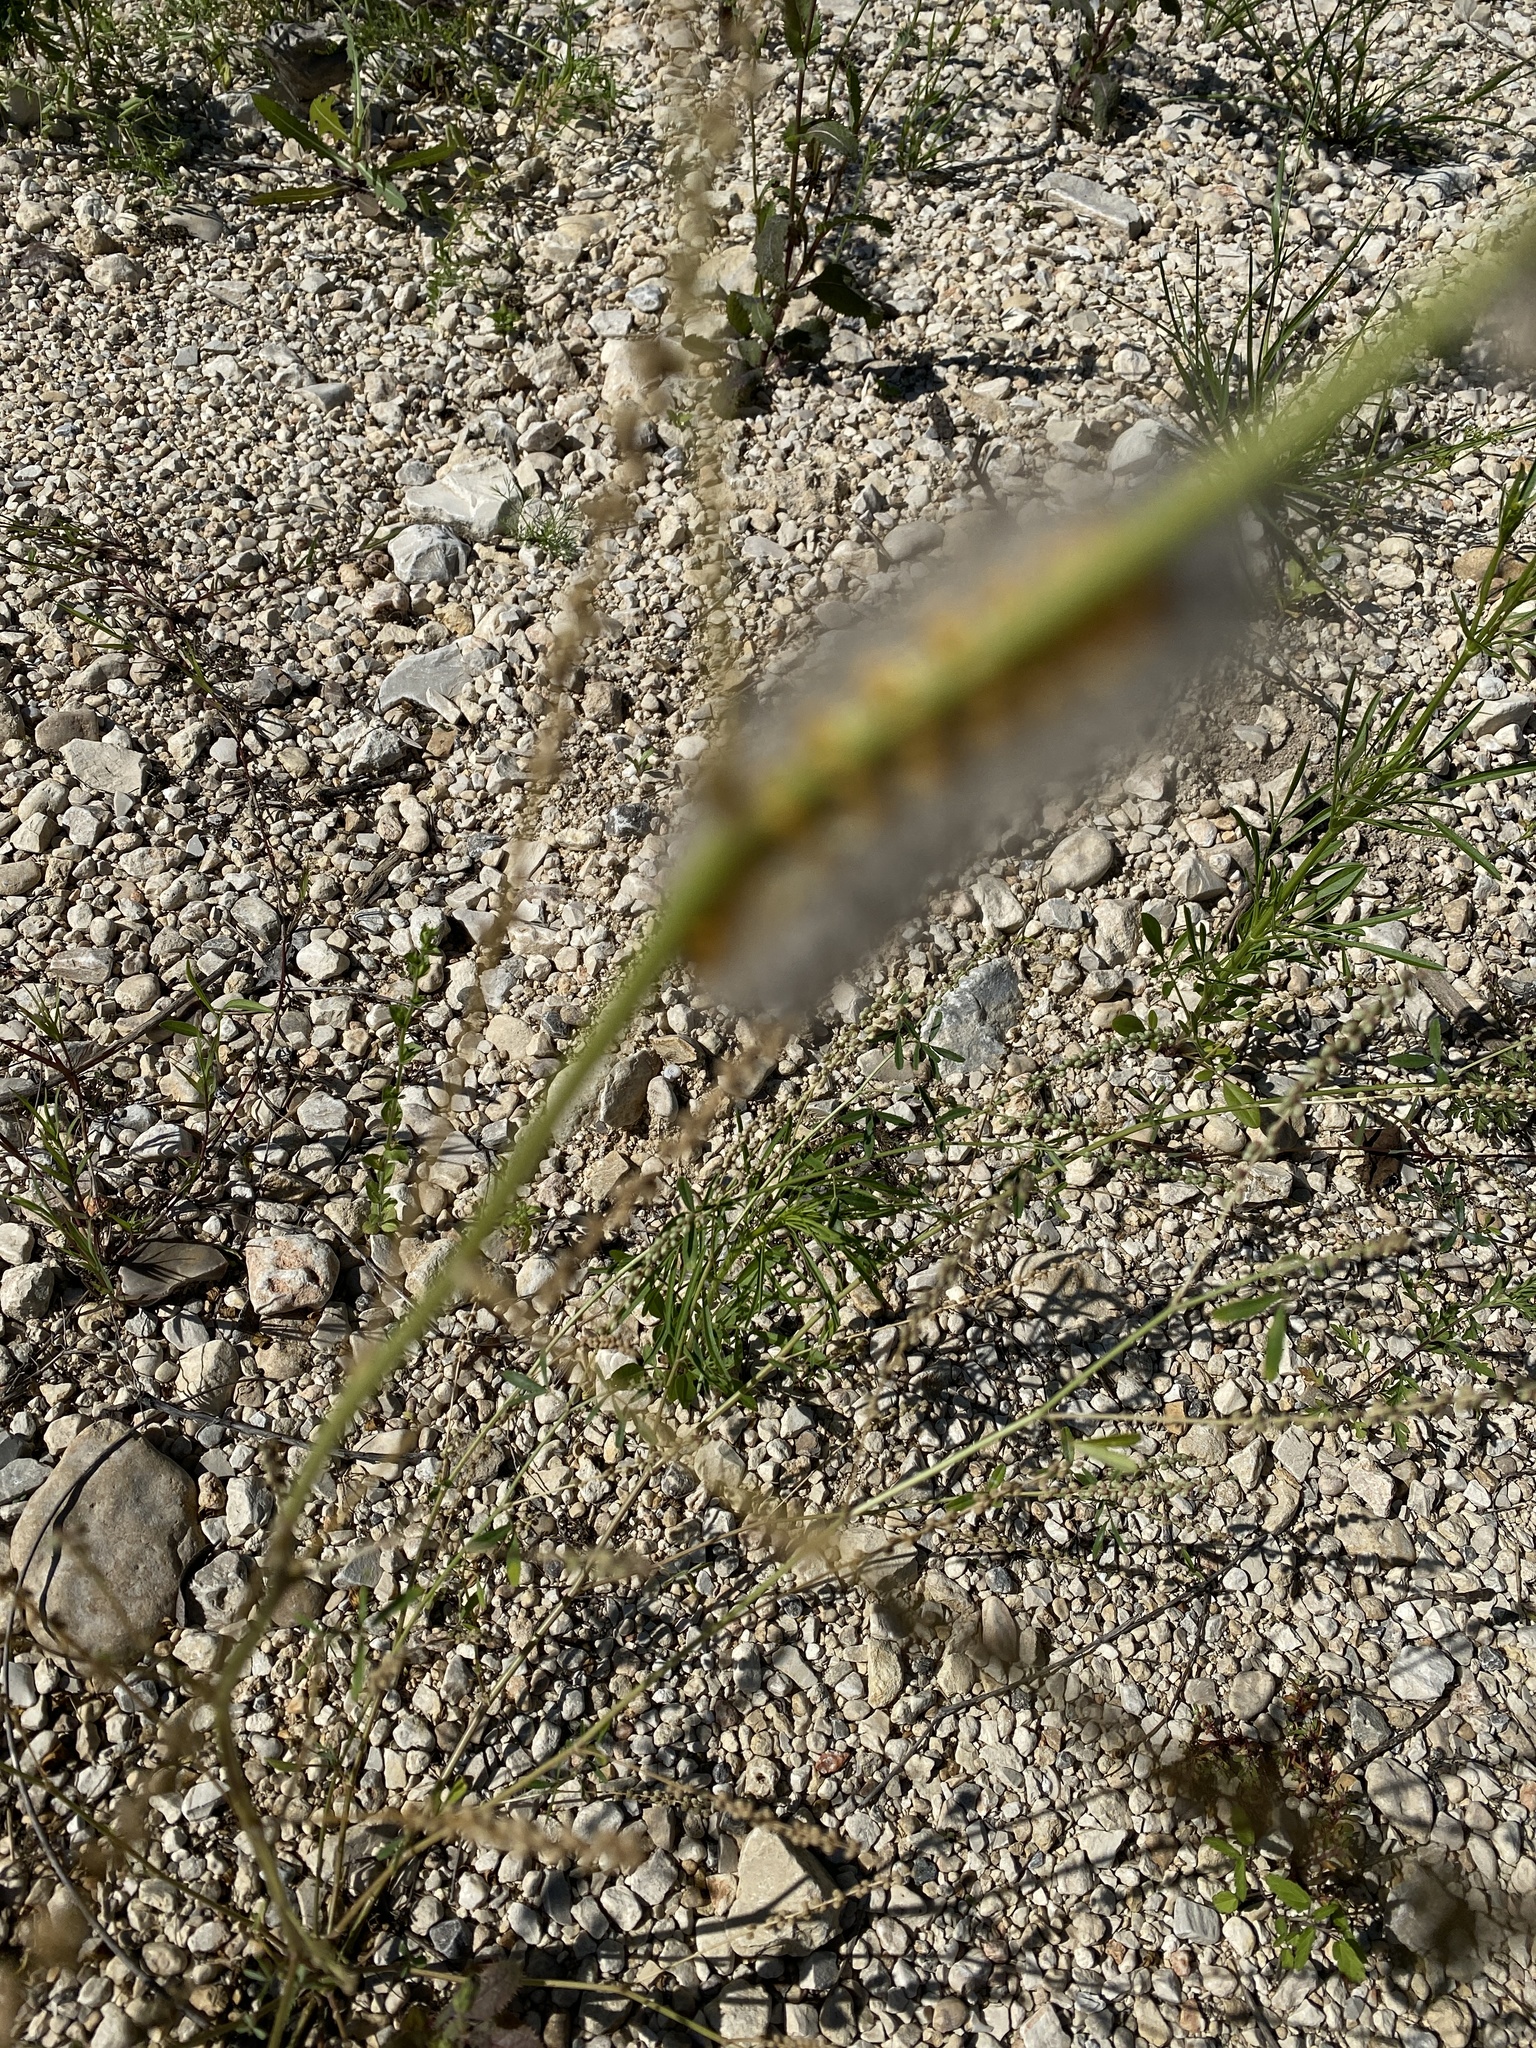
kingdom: Animalia
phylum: Arthropoda
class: Insecta
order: Lepidoptera
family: Erebidae
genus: Estigmene
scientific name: Estigmene acrea
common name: Salt marsh moth
